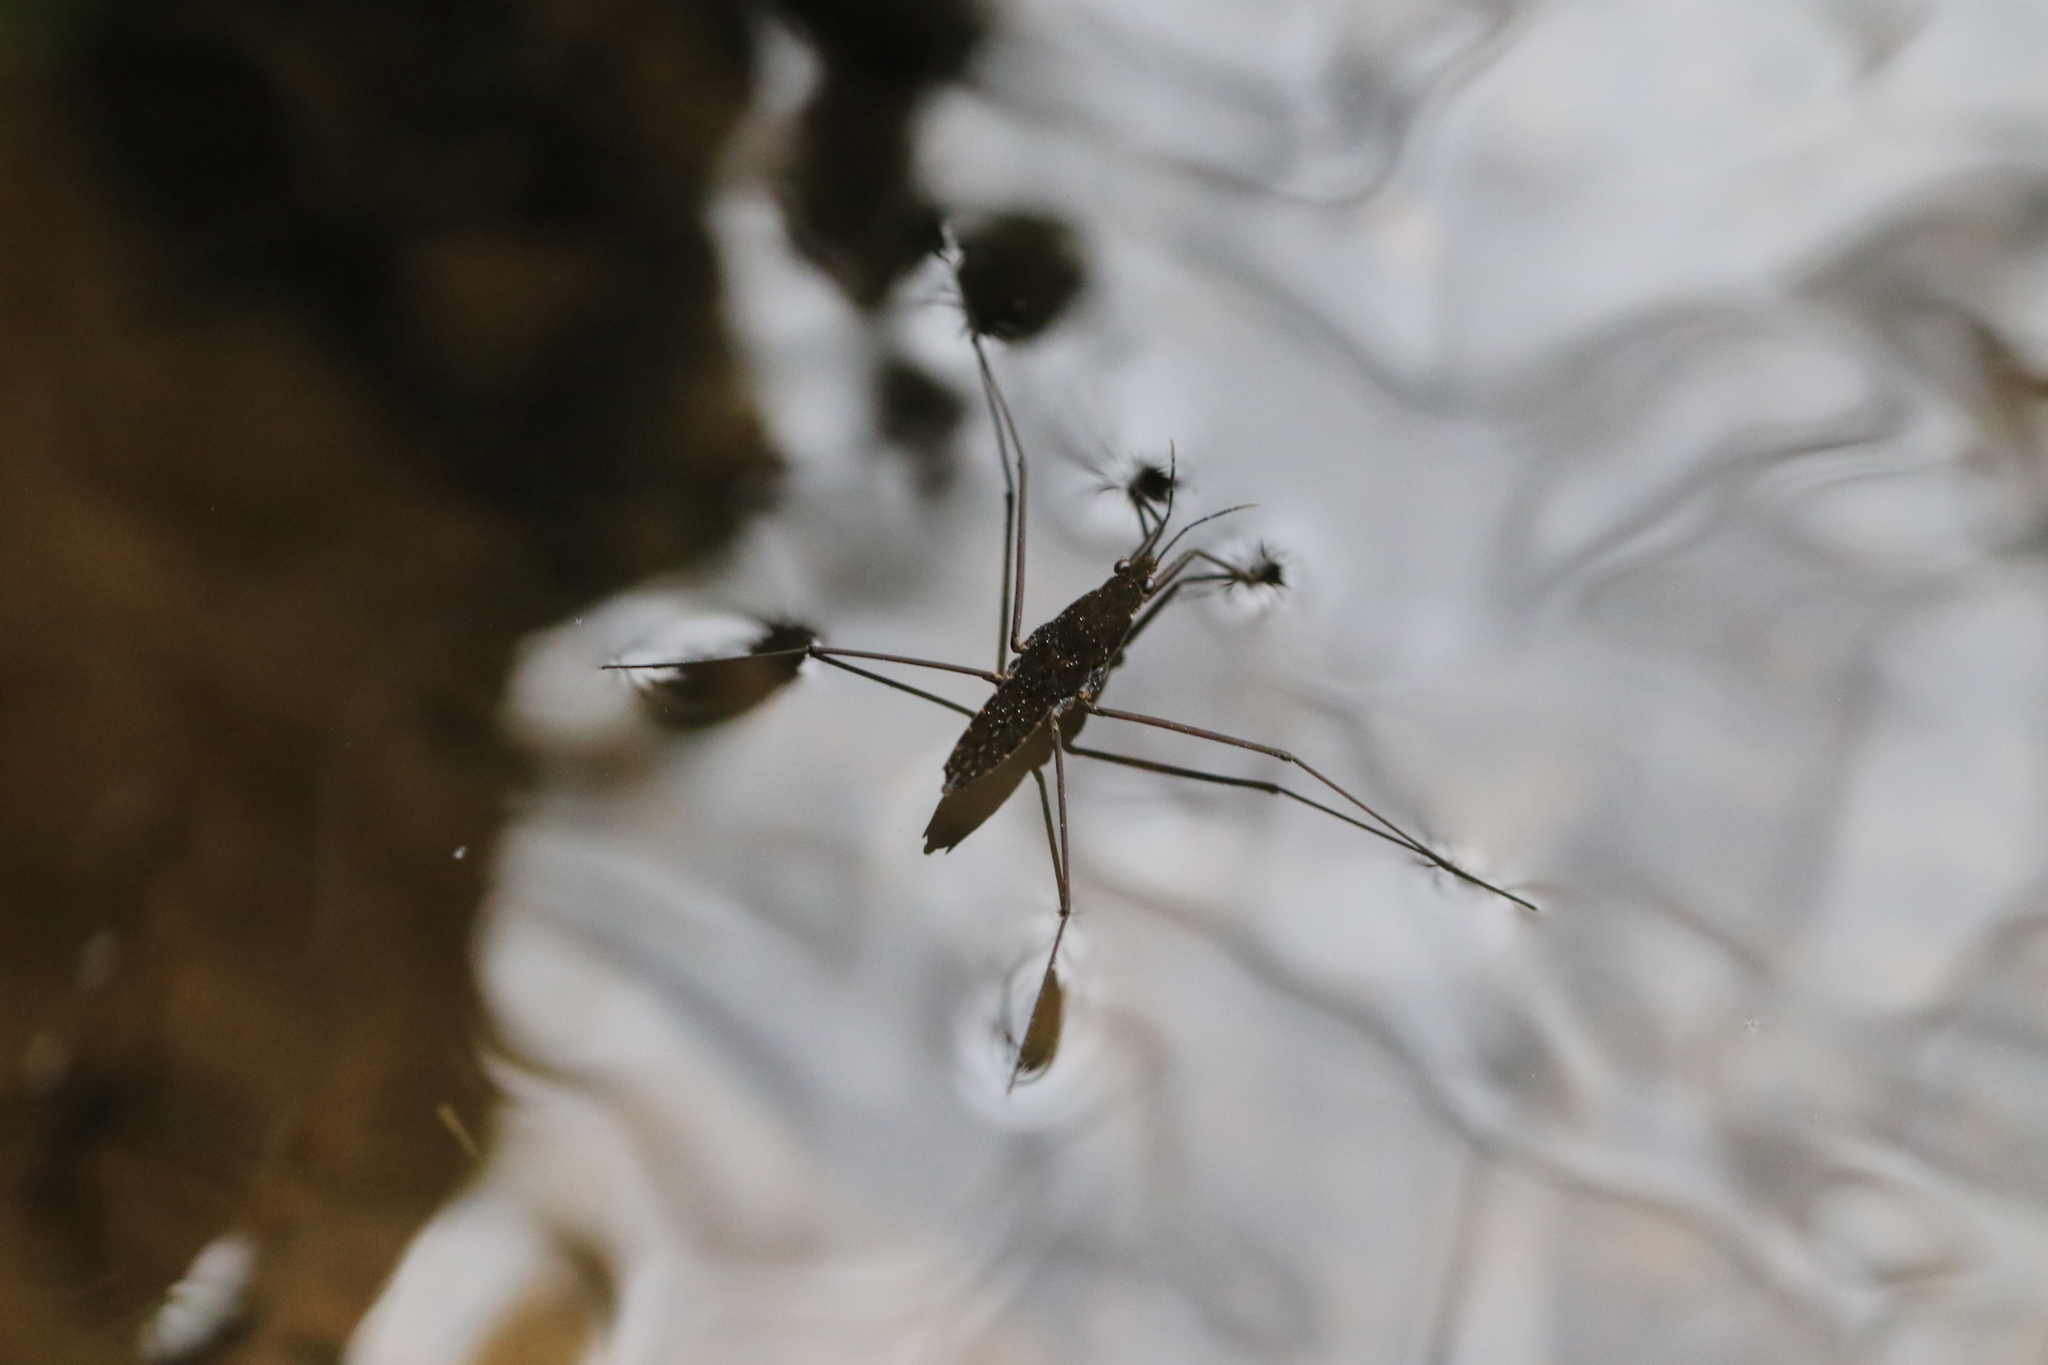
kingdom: Animalia
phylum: Arthropoda
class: Insecta
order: Hemiptera
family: Gerridae
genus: Aquarius
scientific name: Aquarius remigis
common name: Common water strider
